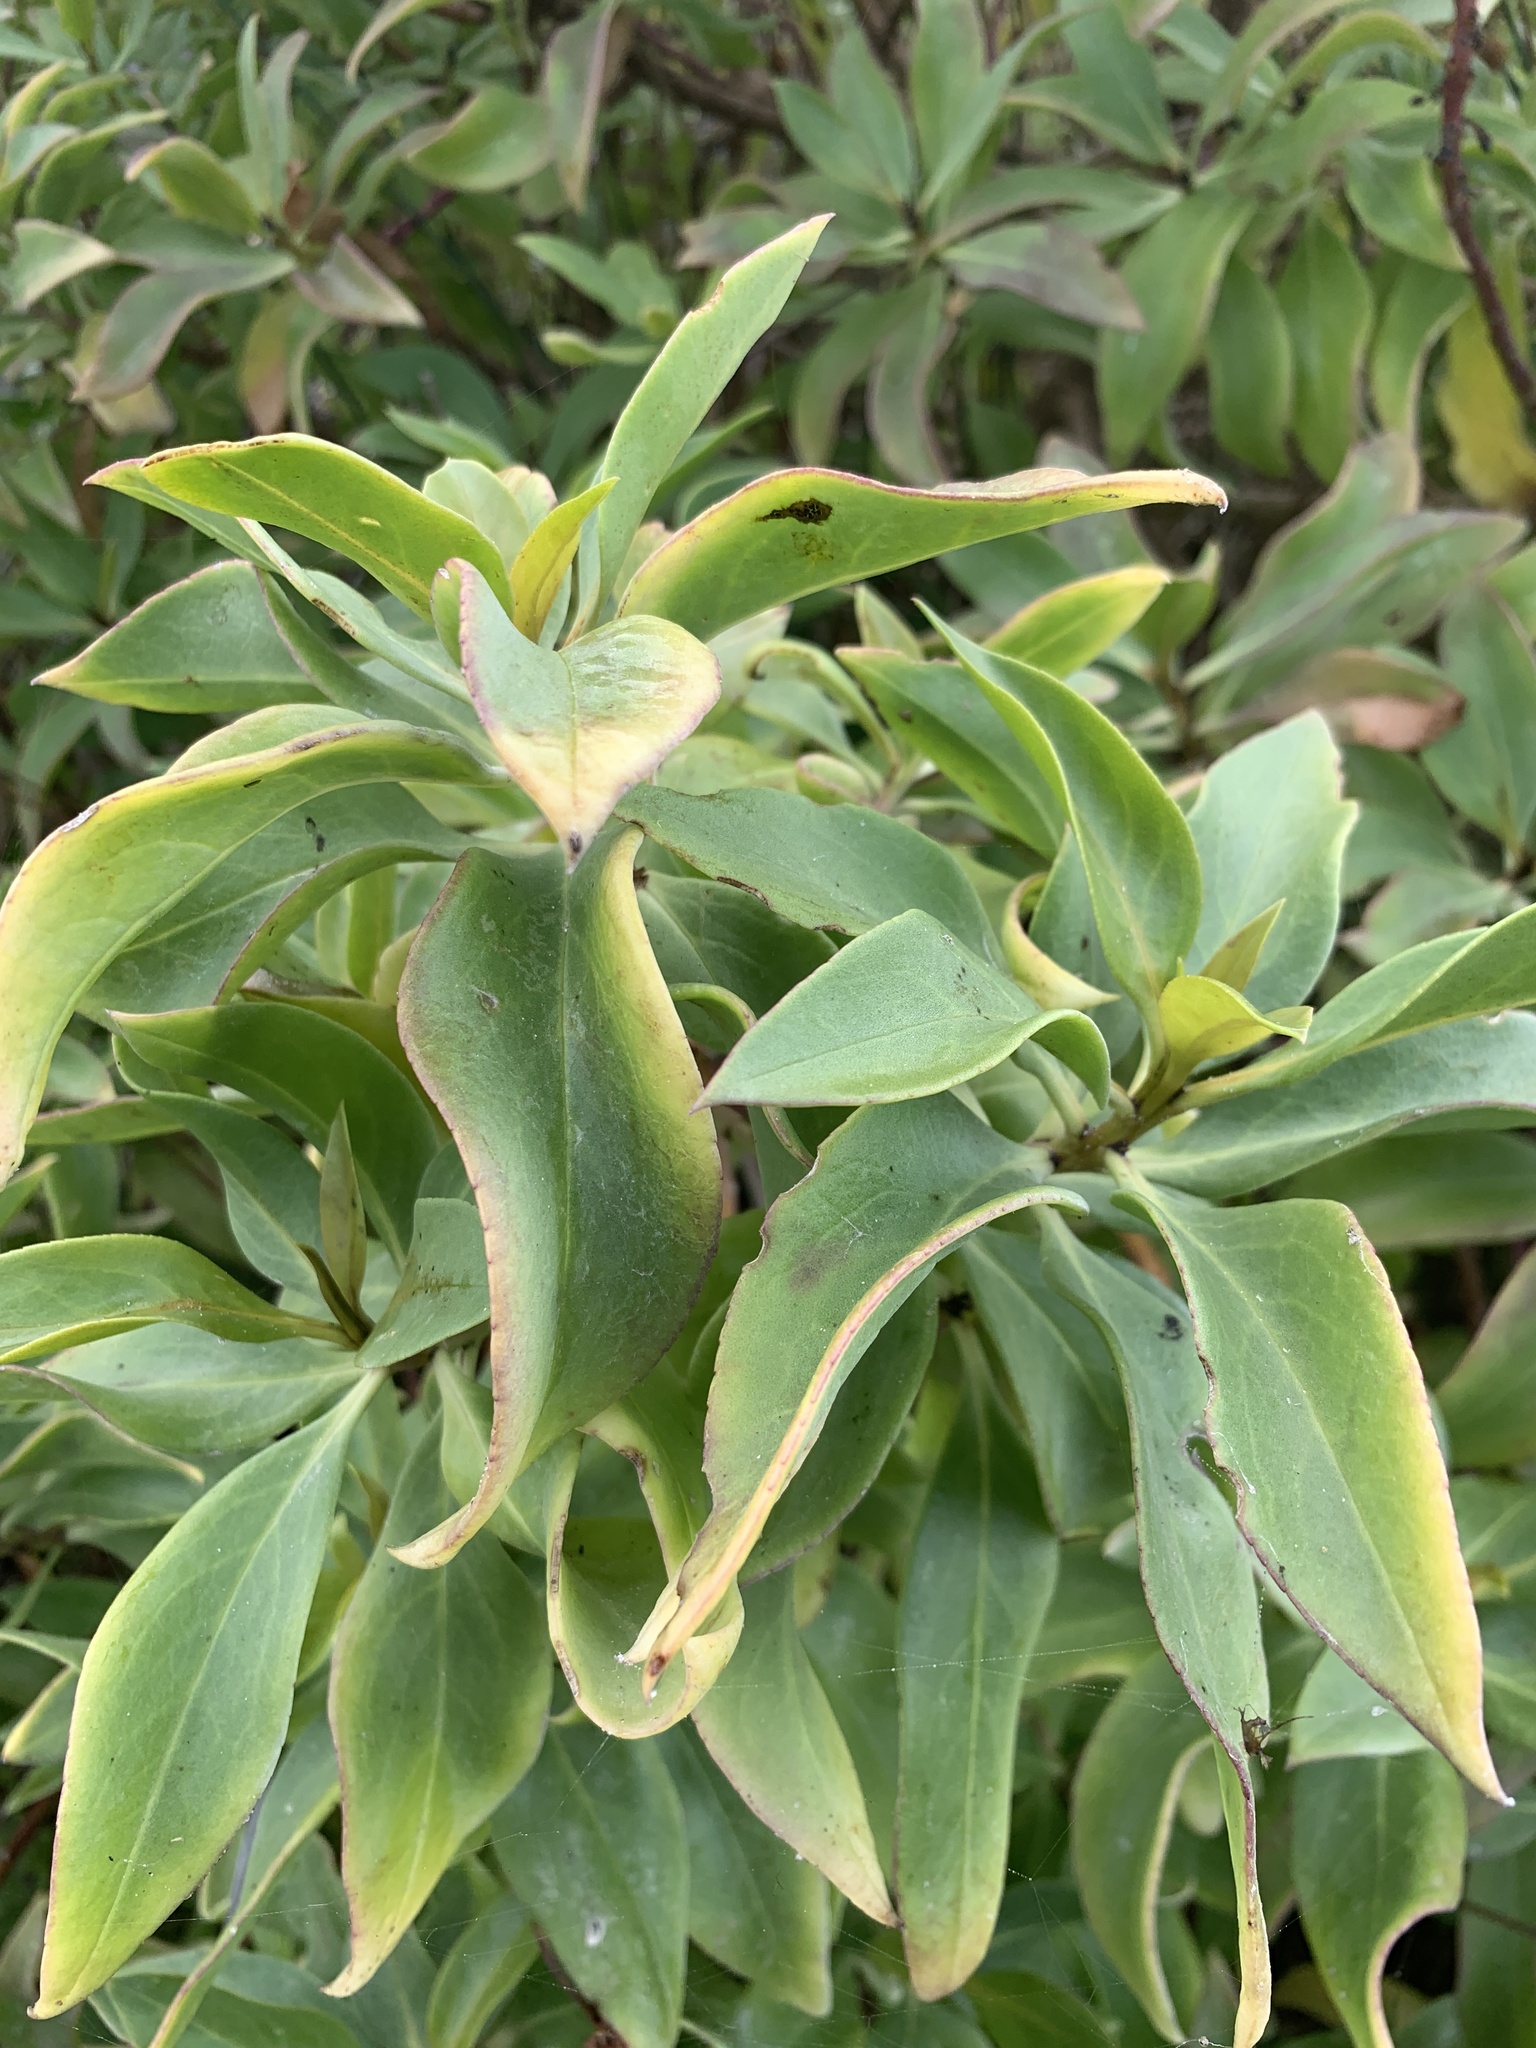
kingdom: Plantae
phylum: Tracheophyta
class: Magnoliopsida
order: Lamiales
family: Scrophulariaceae
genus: Myoporum
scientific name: Myoporum insulare
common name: Common boobialla
